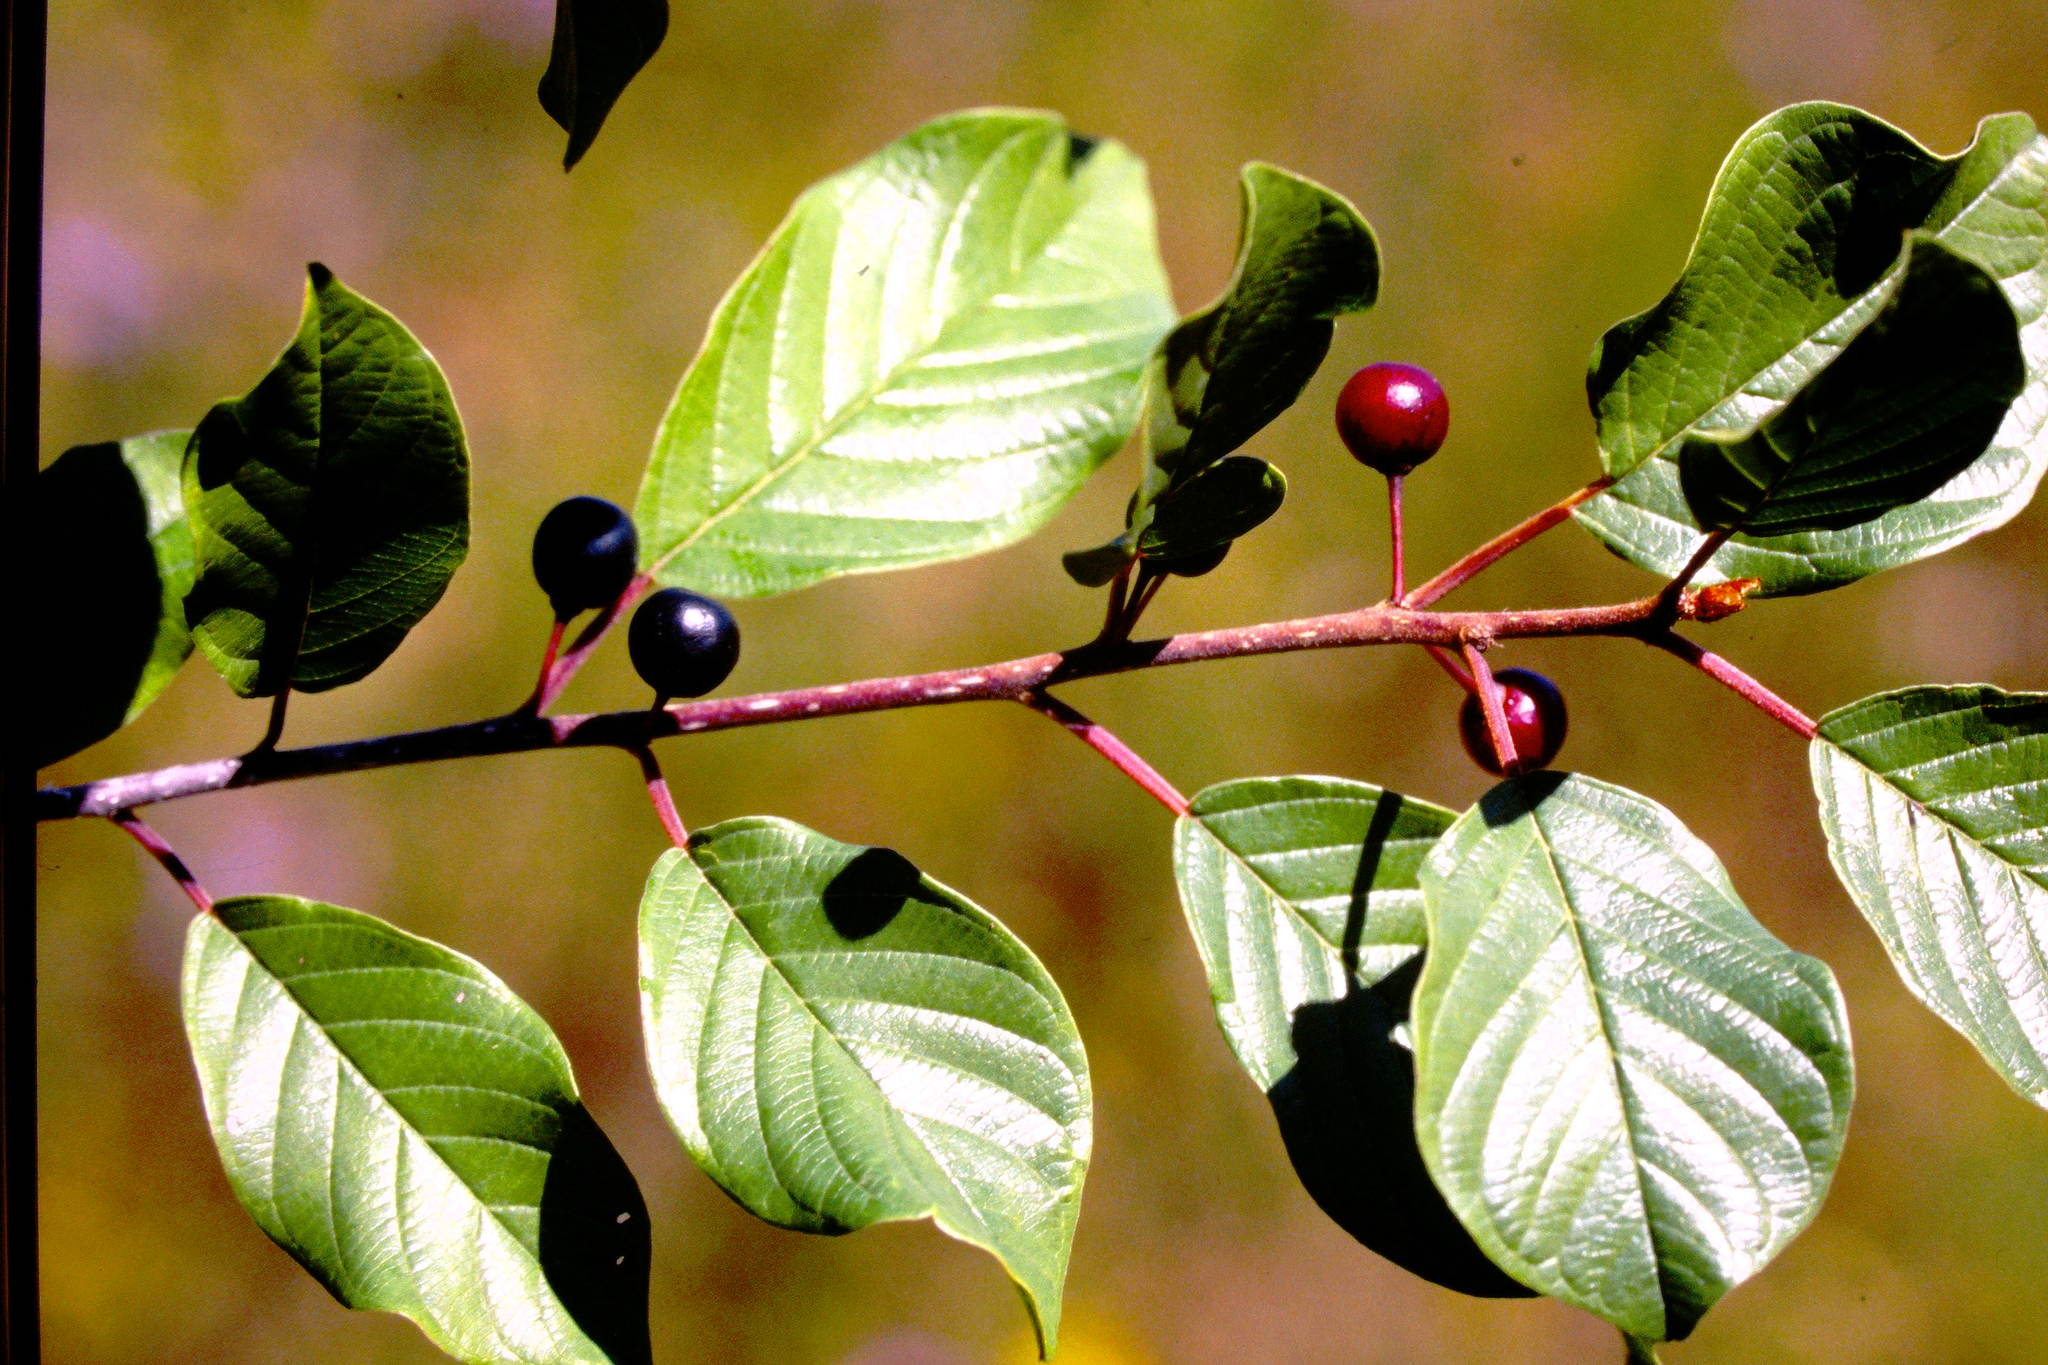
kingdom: Plantae
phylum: Tracheophyta
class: Magnoliopsida
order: Rosales
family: Rhamnaceae
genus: Frangula
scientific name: Frangula alnus
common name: Alder buckthorn
